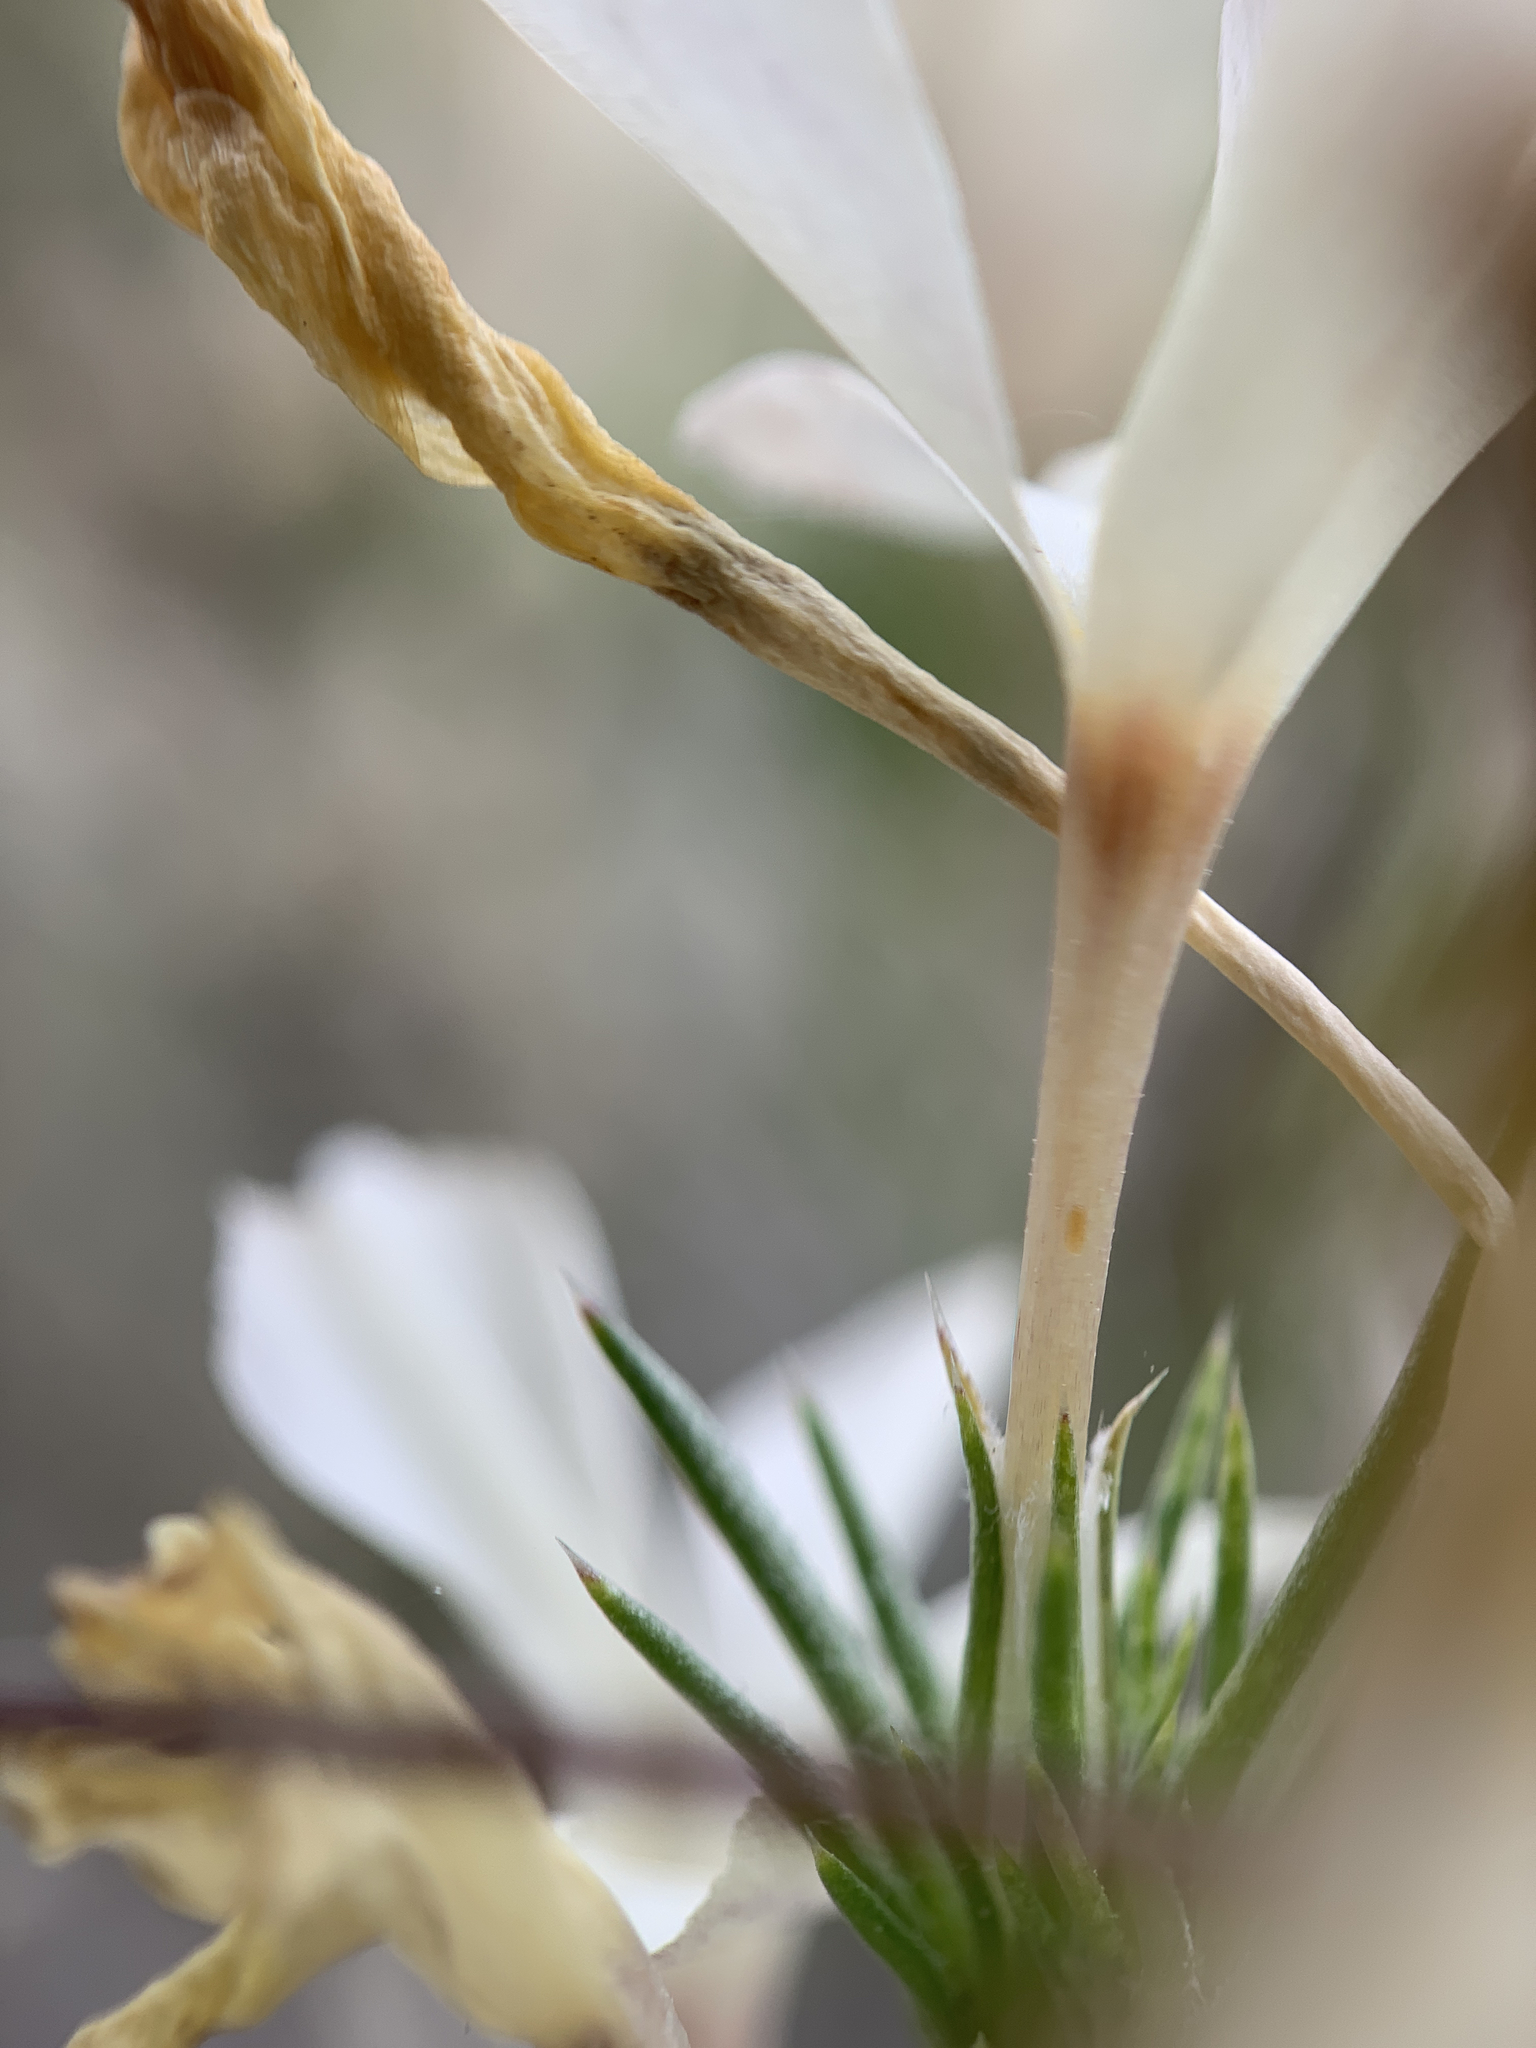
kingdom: Plantae
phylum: Tracheophyta
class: Magnoliopsida
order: Ericales
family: Polemoniaceae
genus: Linanthus
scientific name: Linanthus pungens
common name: Granite prickly phlox
